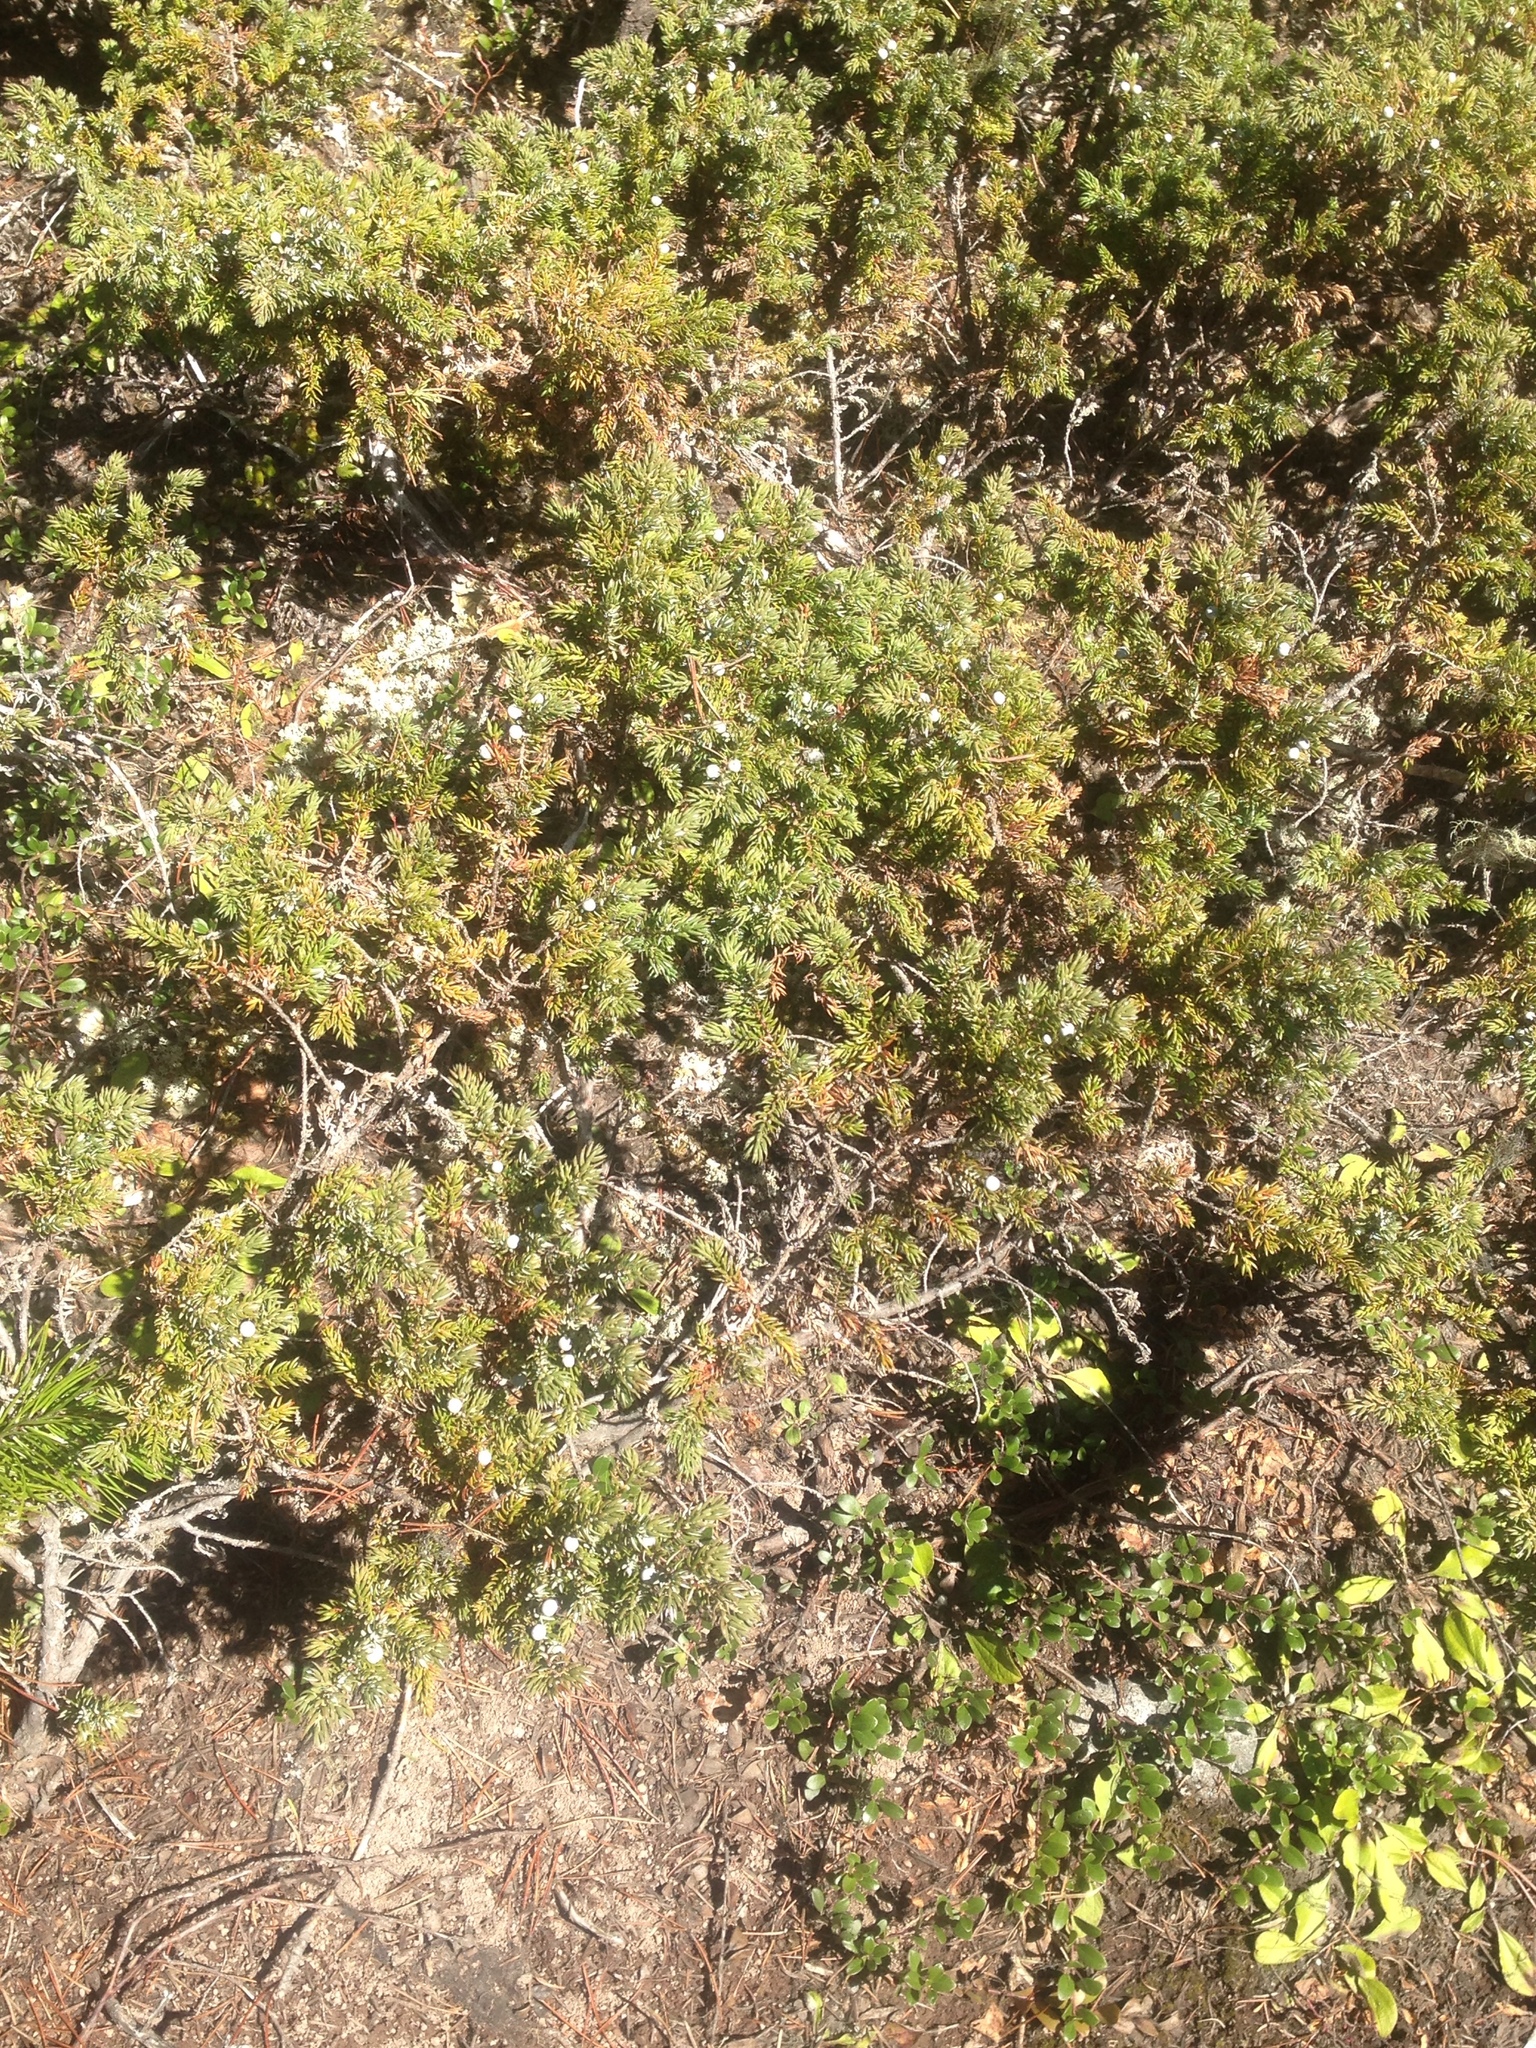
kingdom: Plantae
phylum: Tracheophyta
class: Pinopsida
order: Pinales
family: Cupressaceae
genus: Juniperus
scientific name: Juniperus communis
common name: Common juniper
